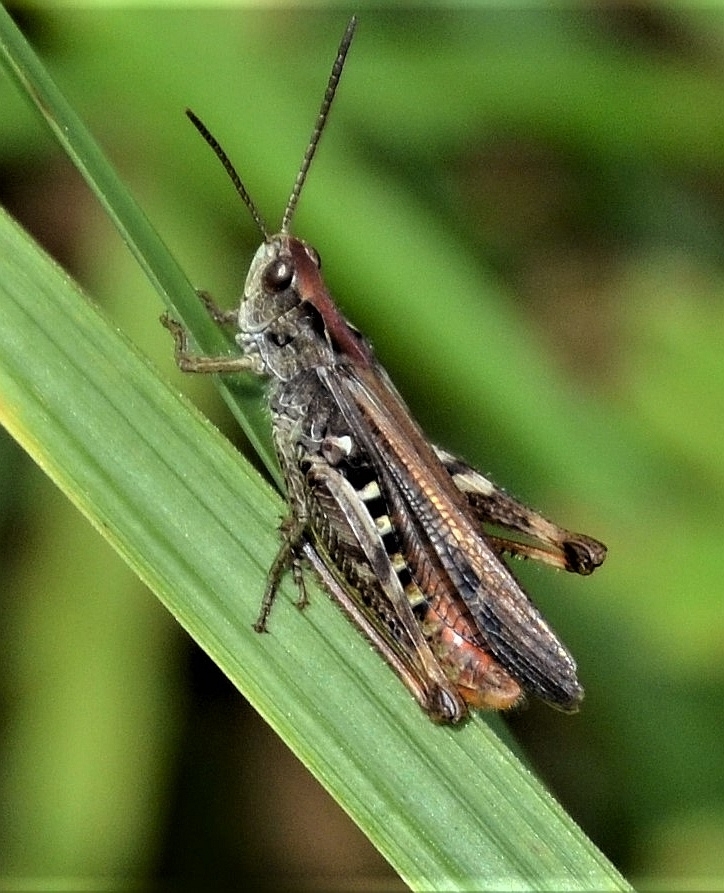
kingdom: Animalia
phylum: Arthropoda
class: Insecta
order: Orthoptera
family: Acrididae
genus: Chorthippus
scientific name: Chorthippus biguttulus
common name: Bow-winged grasshopper
